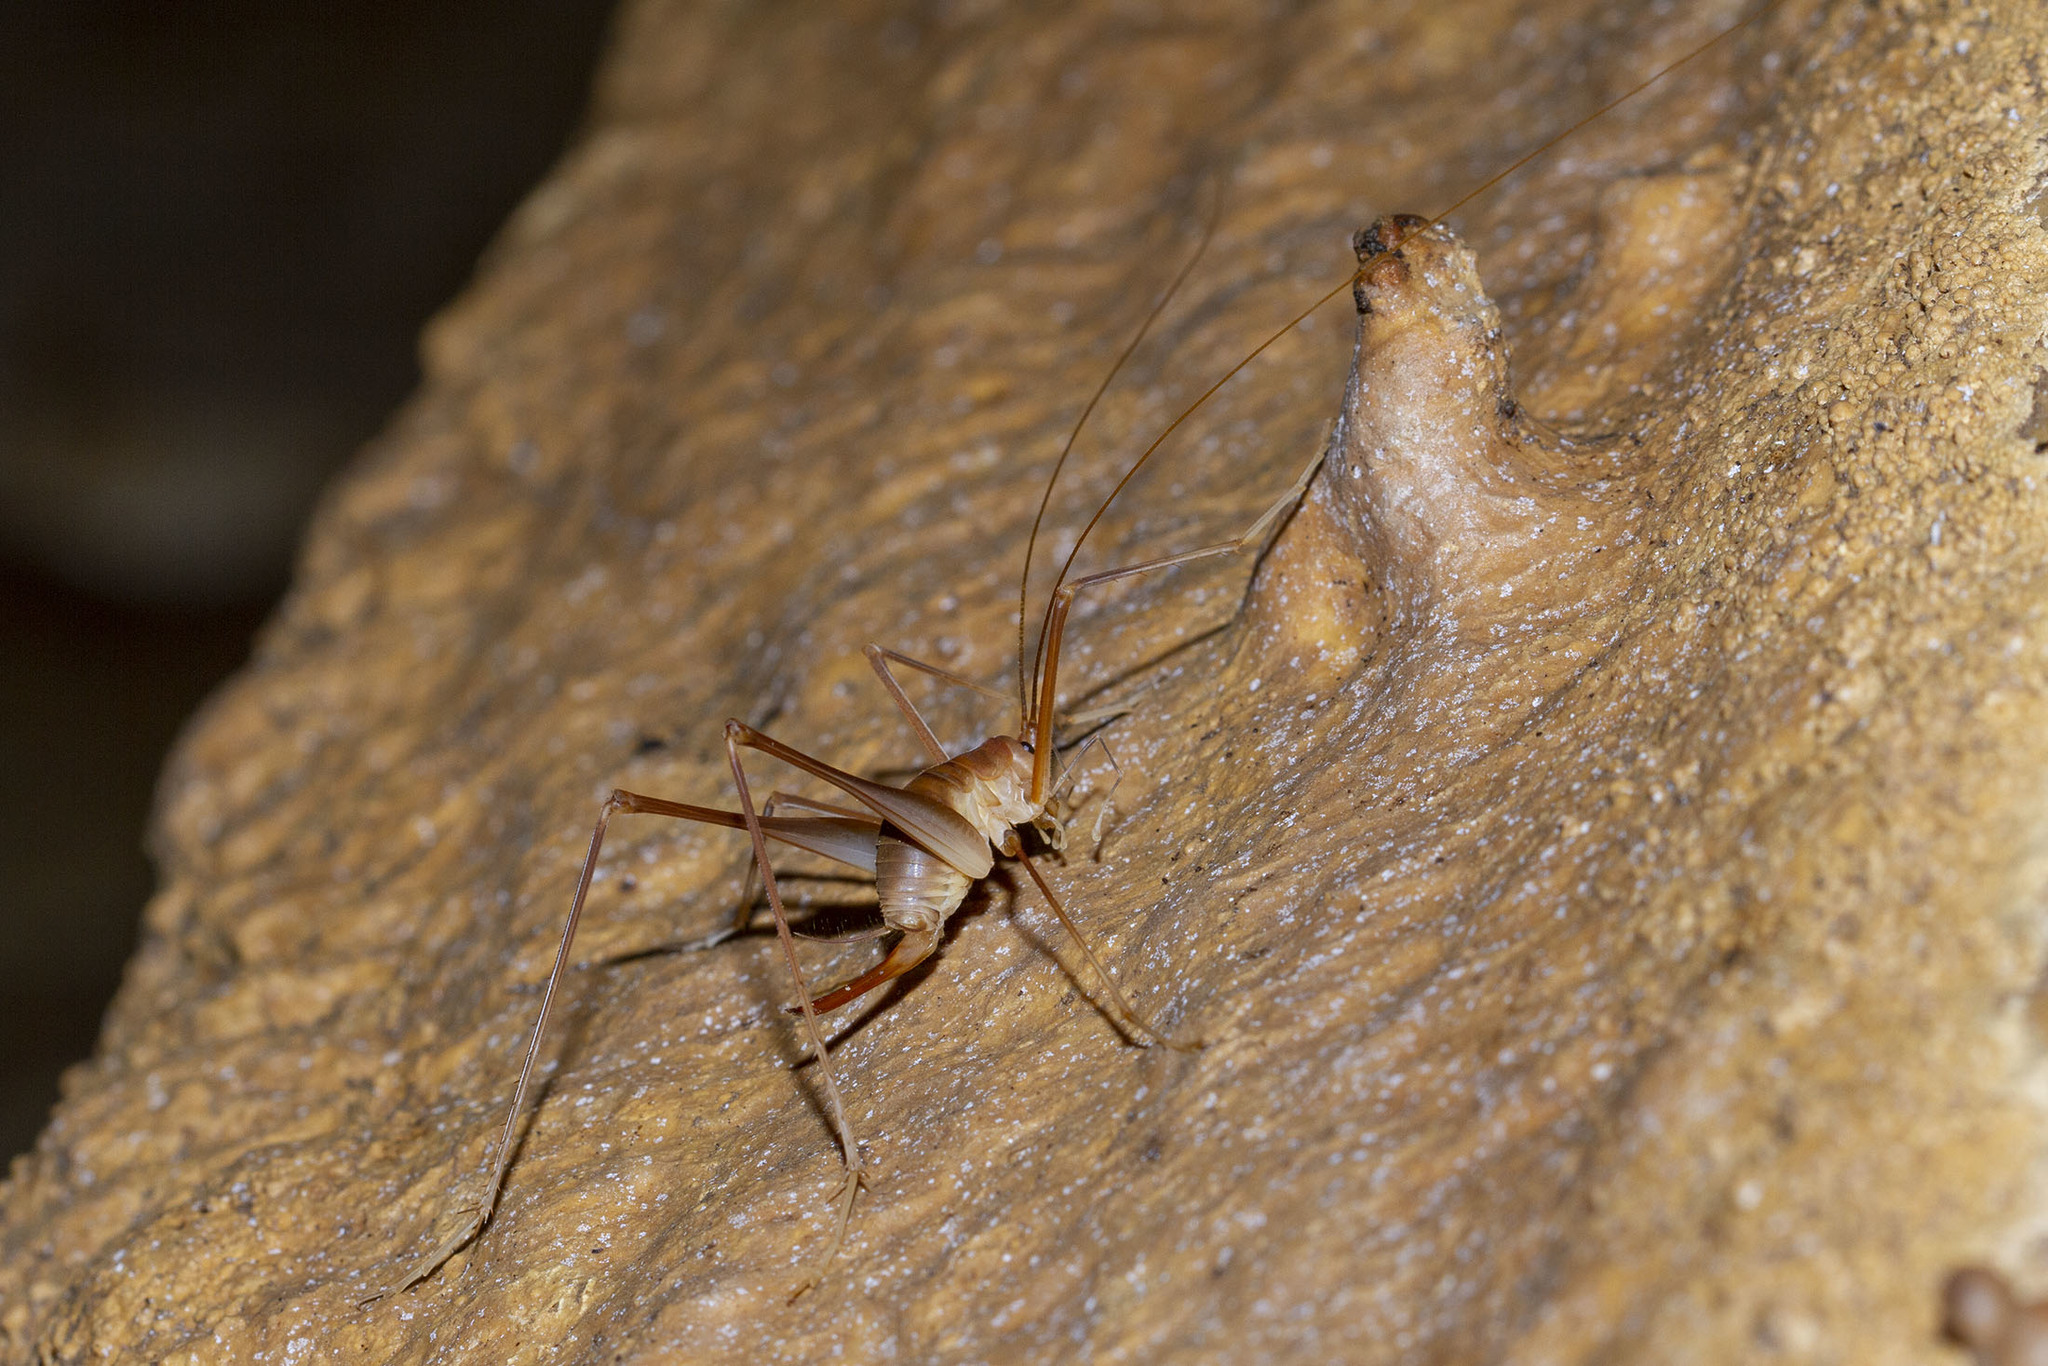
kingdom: Animalia
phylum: Arthropoda
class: Insecta
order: Orthoptera
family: Rhaphidophoridae
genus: Hadenoecus
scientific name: Hadenoecus subterraneus
